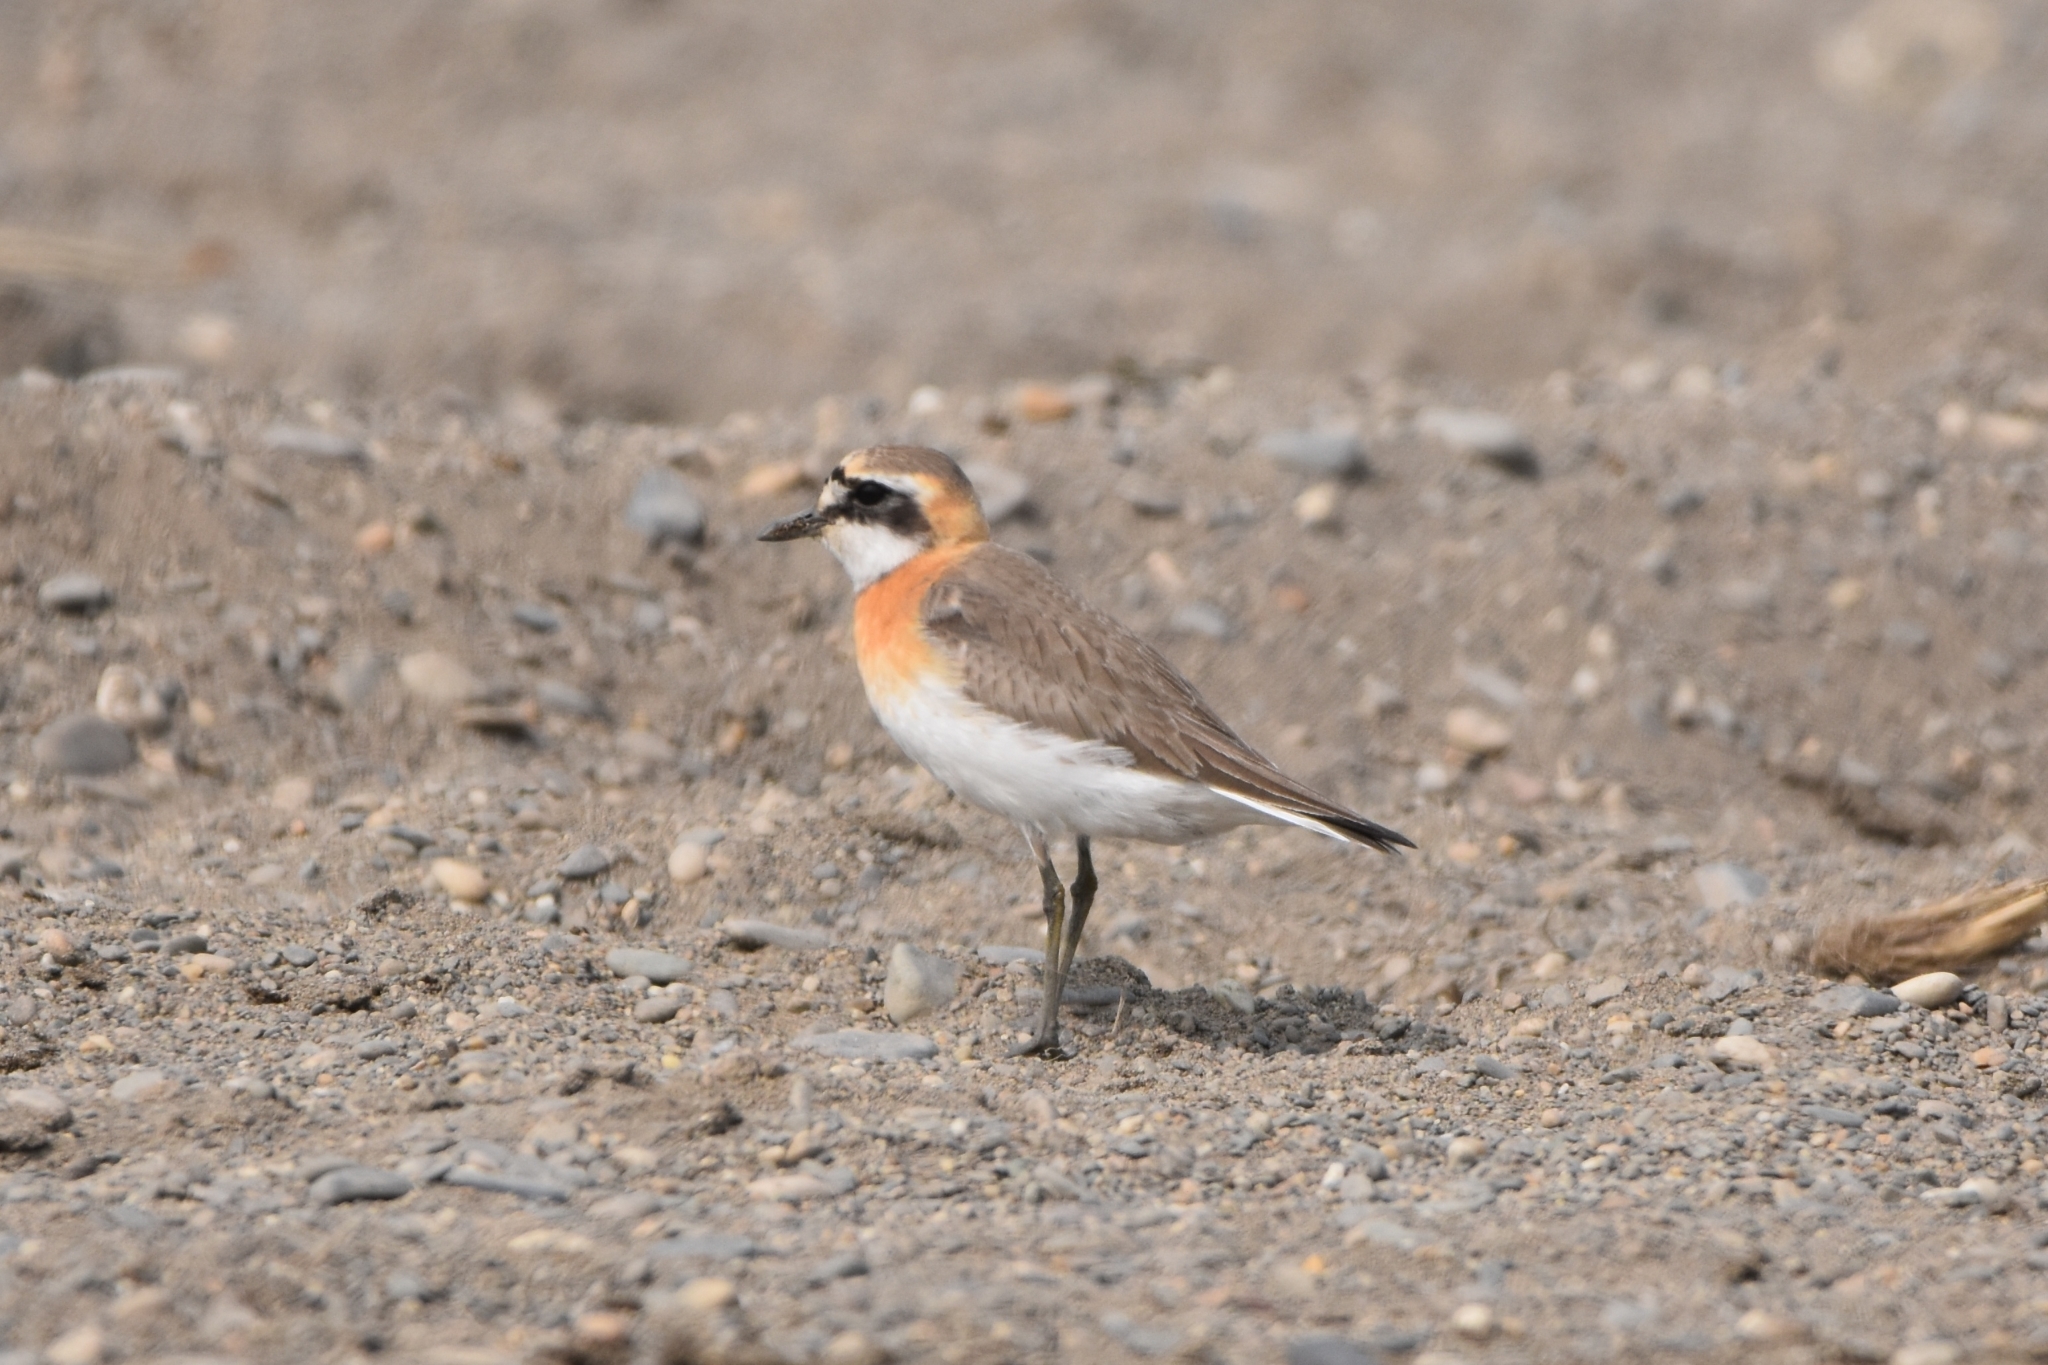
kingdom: Animalia
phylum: Chordata
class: Aves
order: Charadriiformes
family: Charadriidae
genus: Anarhynchus
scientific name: Anarhynchus
